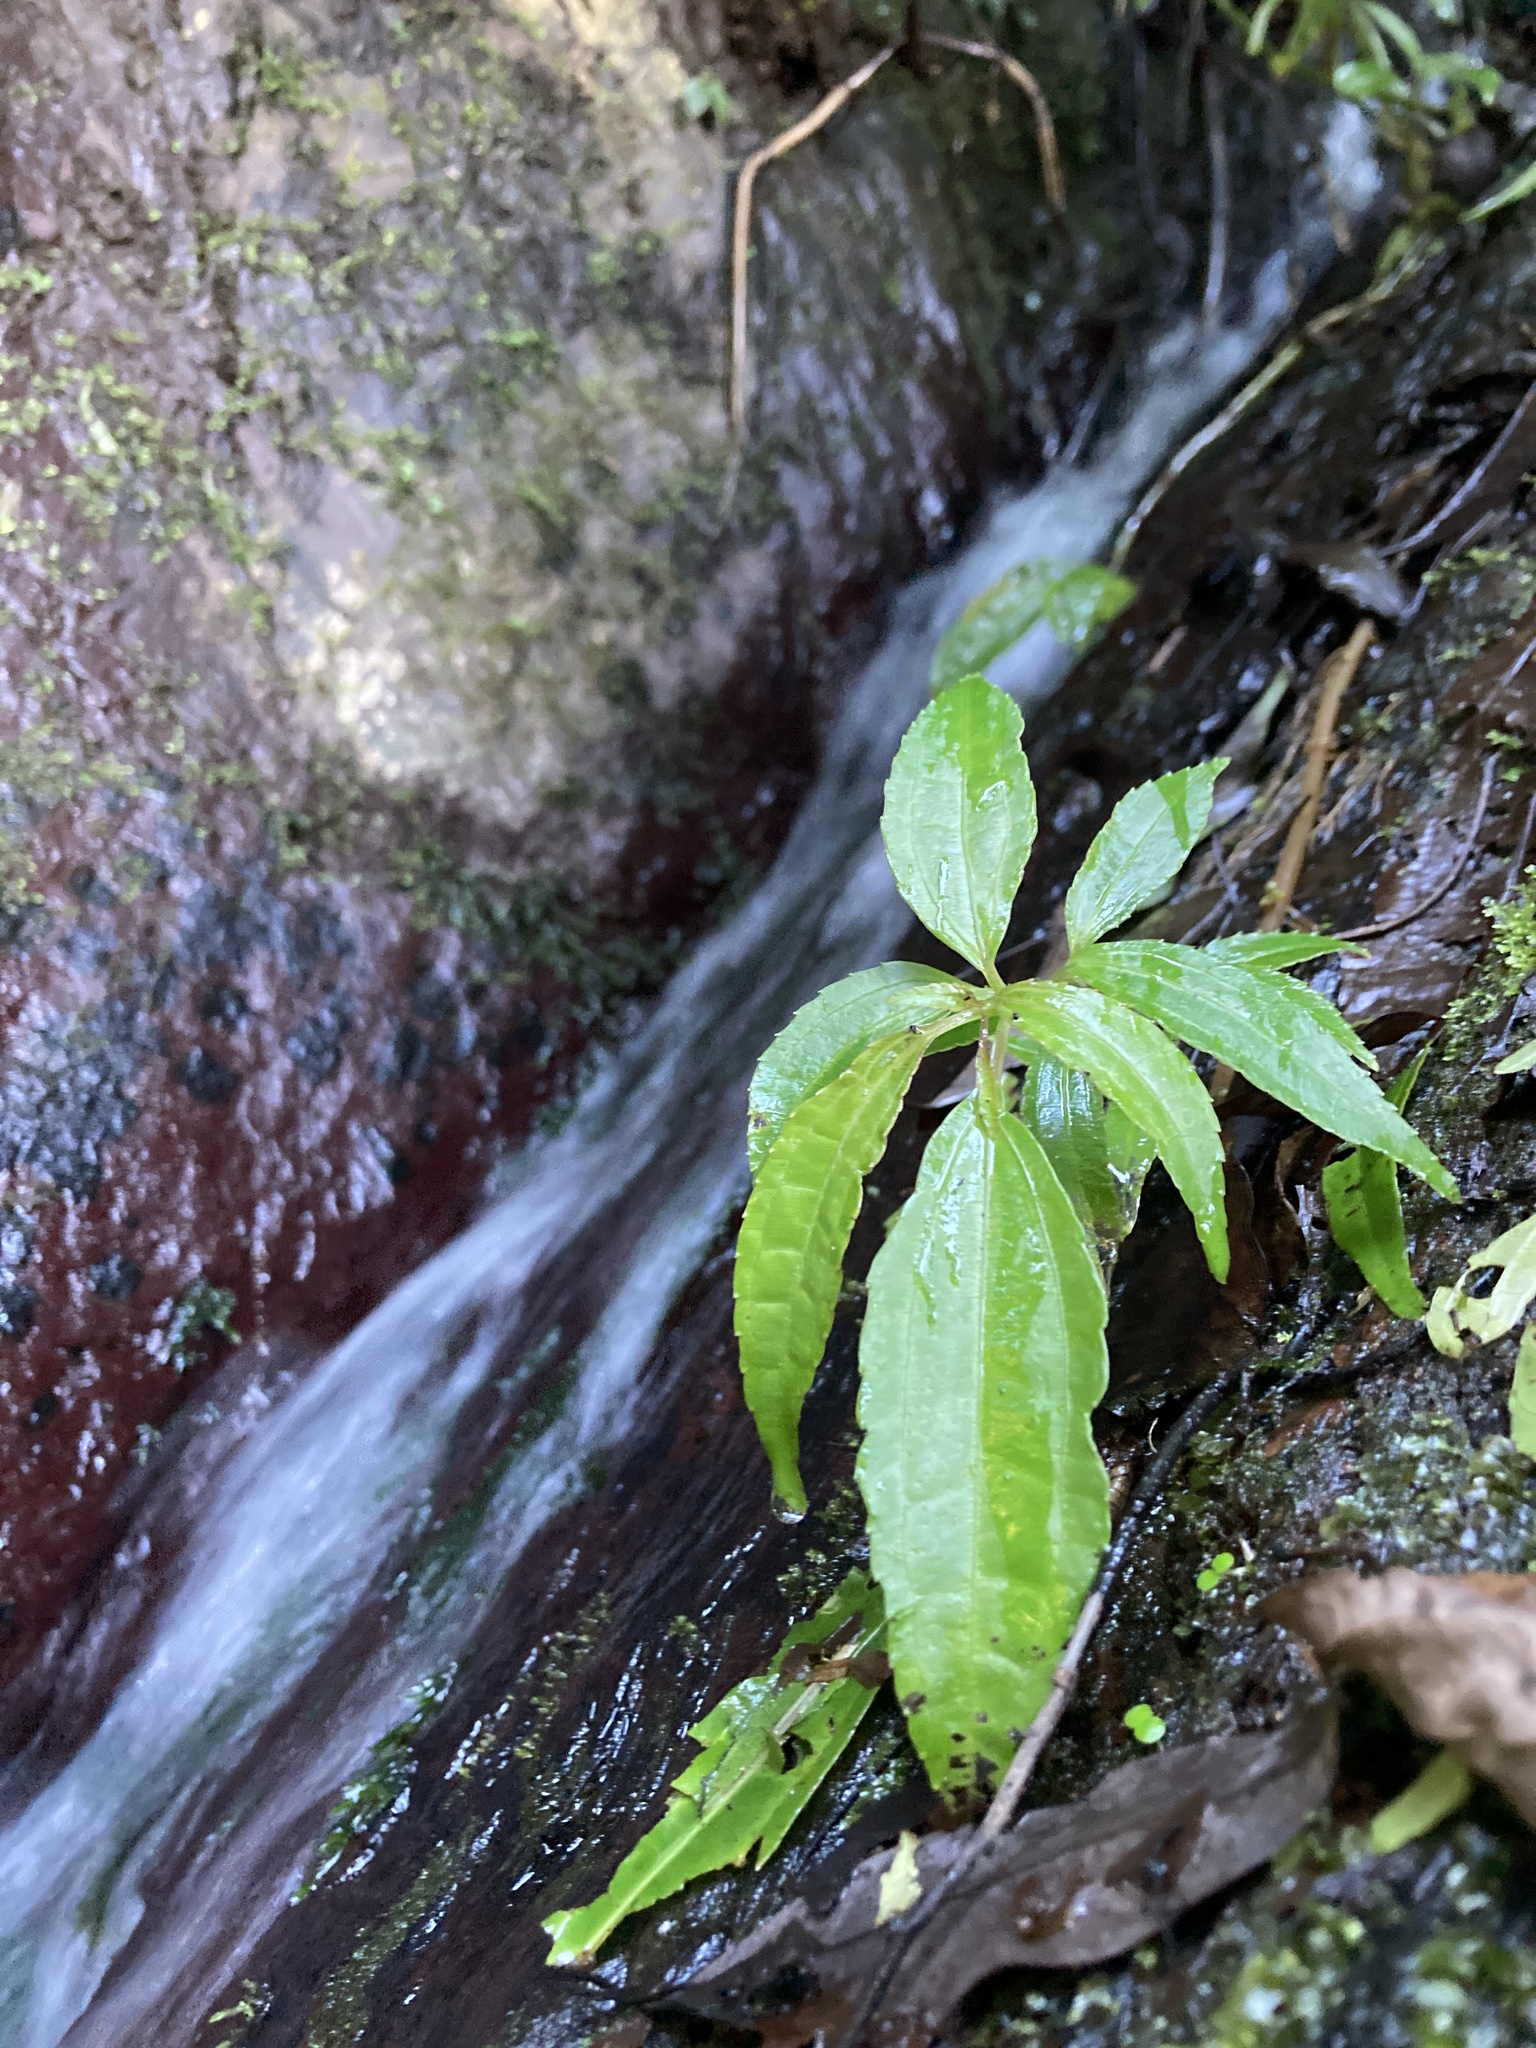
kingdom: Plantae
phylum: Tracheophyta
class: Magnoliopsida
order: Rosales
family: Urticaceae
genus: Pilea
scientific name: Pilea rotundinucula
